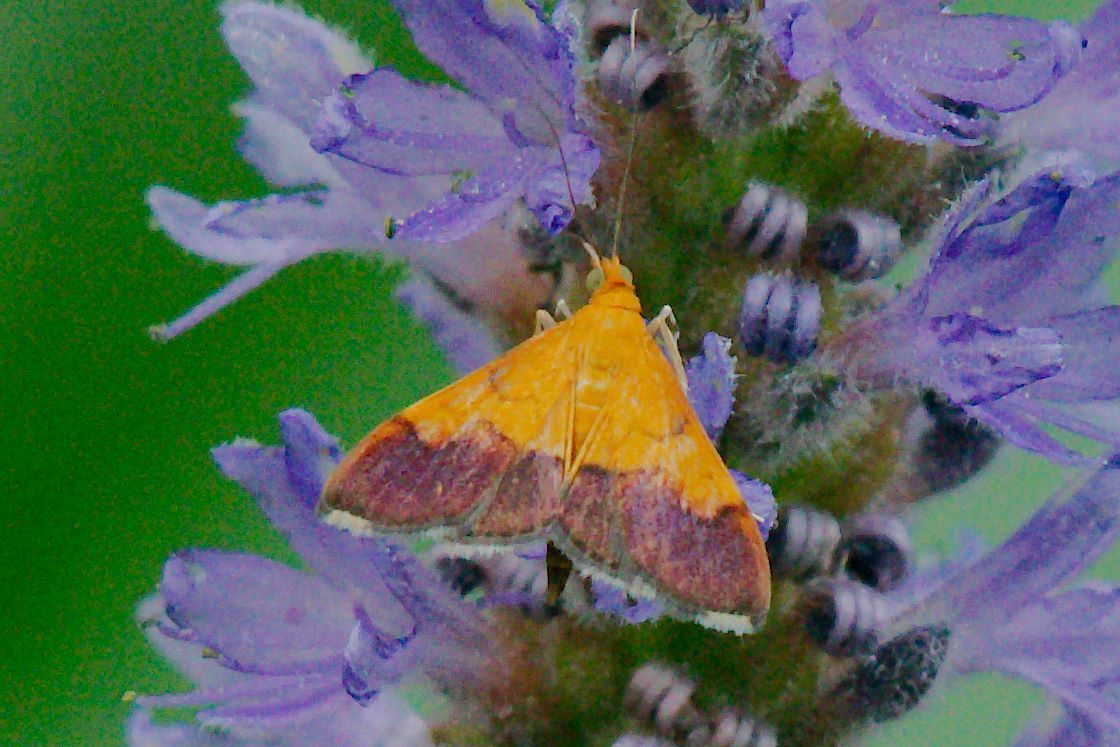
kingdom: Animalia
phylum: Arthropoda
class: Insecta
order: Lepidoptera
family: Crambidae
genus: Pyrausta
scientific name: Pyrausta bicoloralis
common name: Bicolored pyrausta moth
